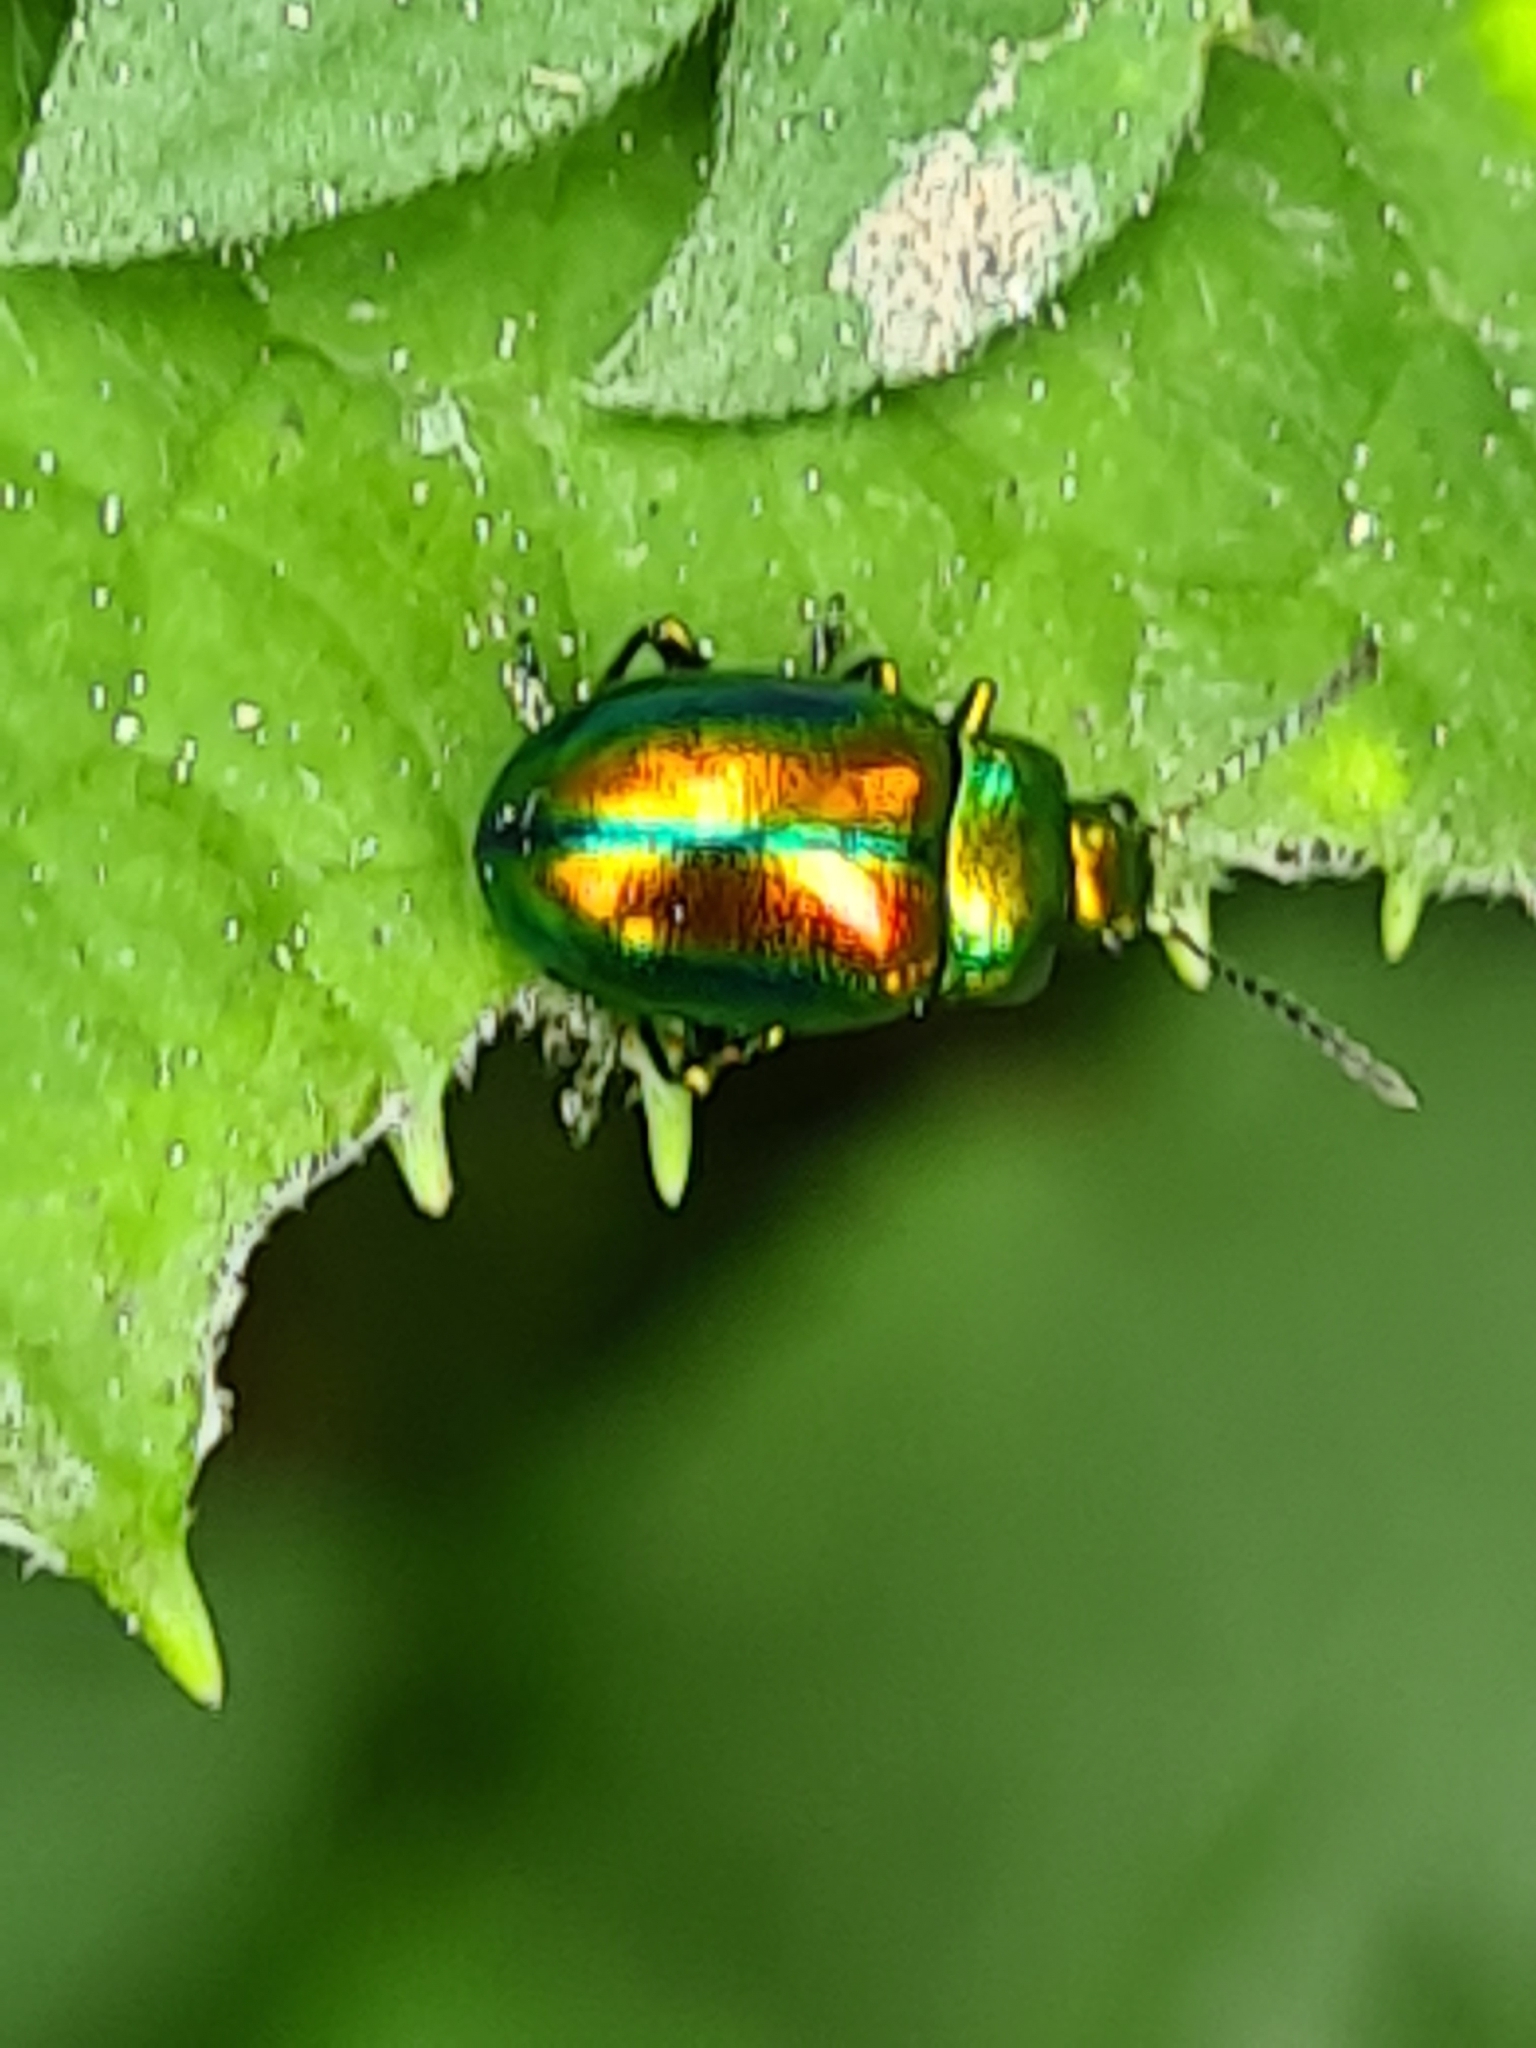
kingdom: Animalia
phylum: Arthropoda
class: Insecta
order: Coleoptera
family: Chrysomelidae
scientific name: Chrysomelidae
